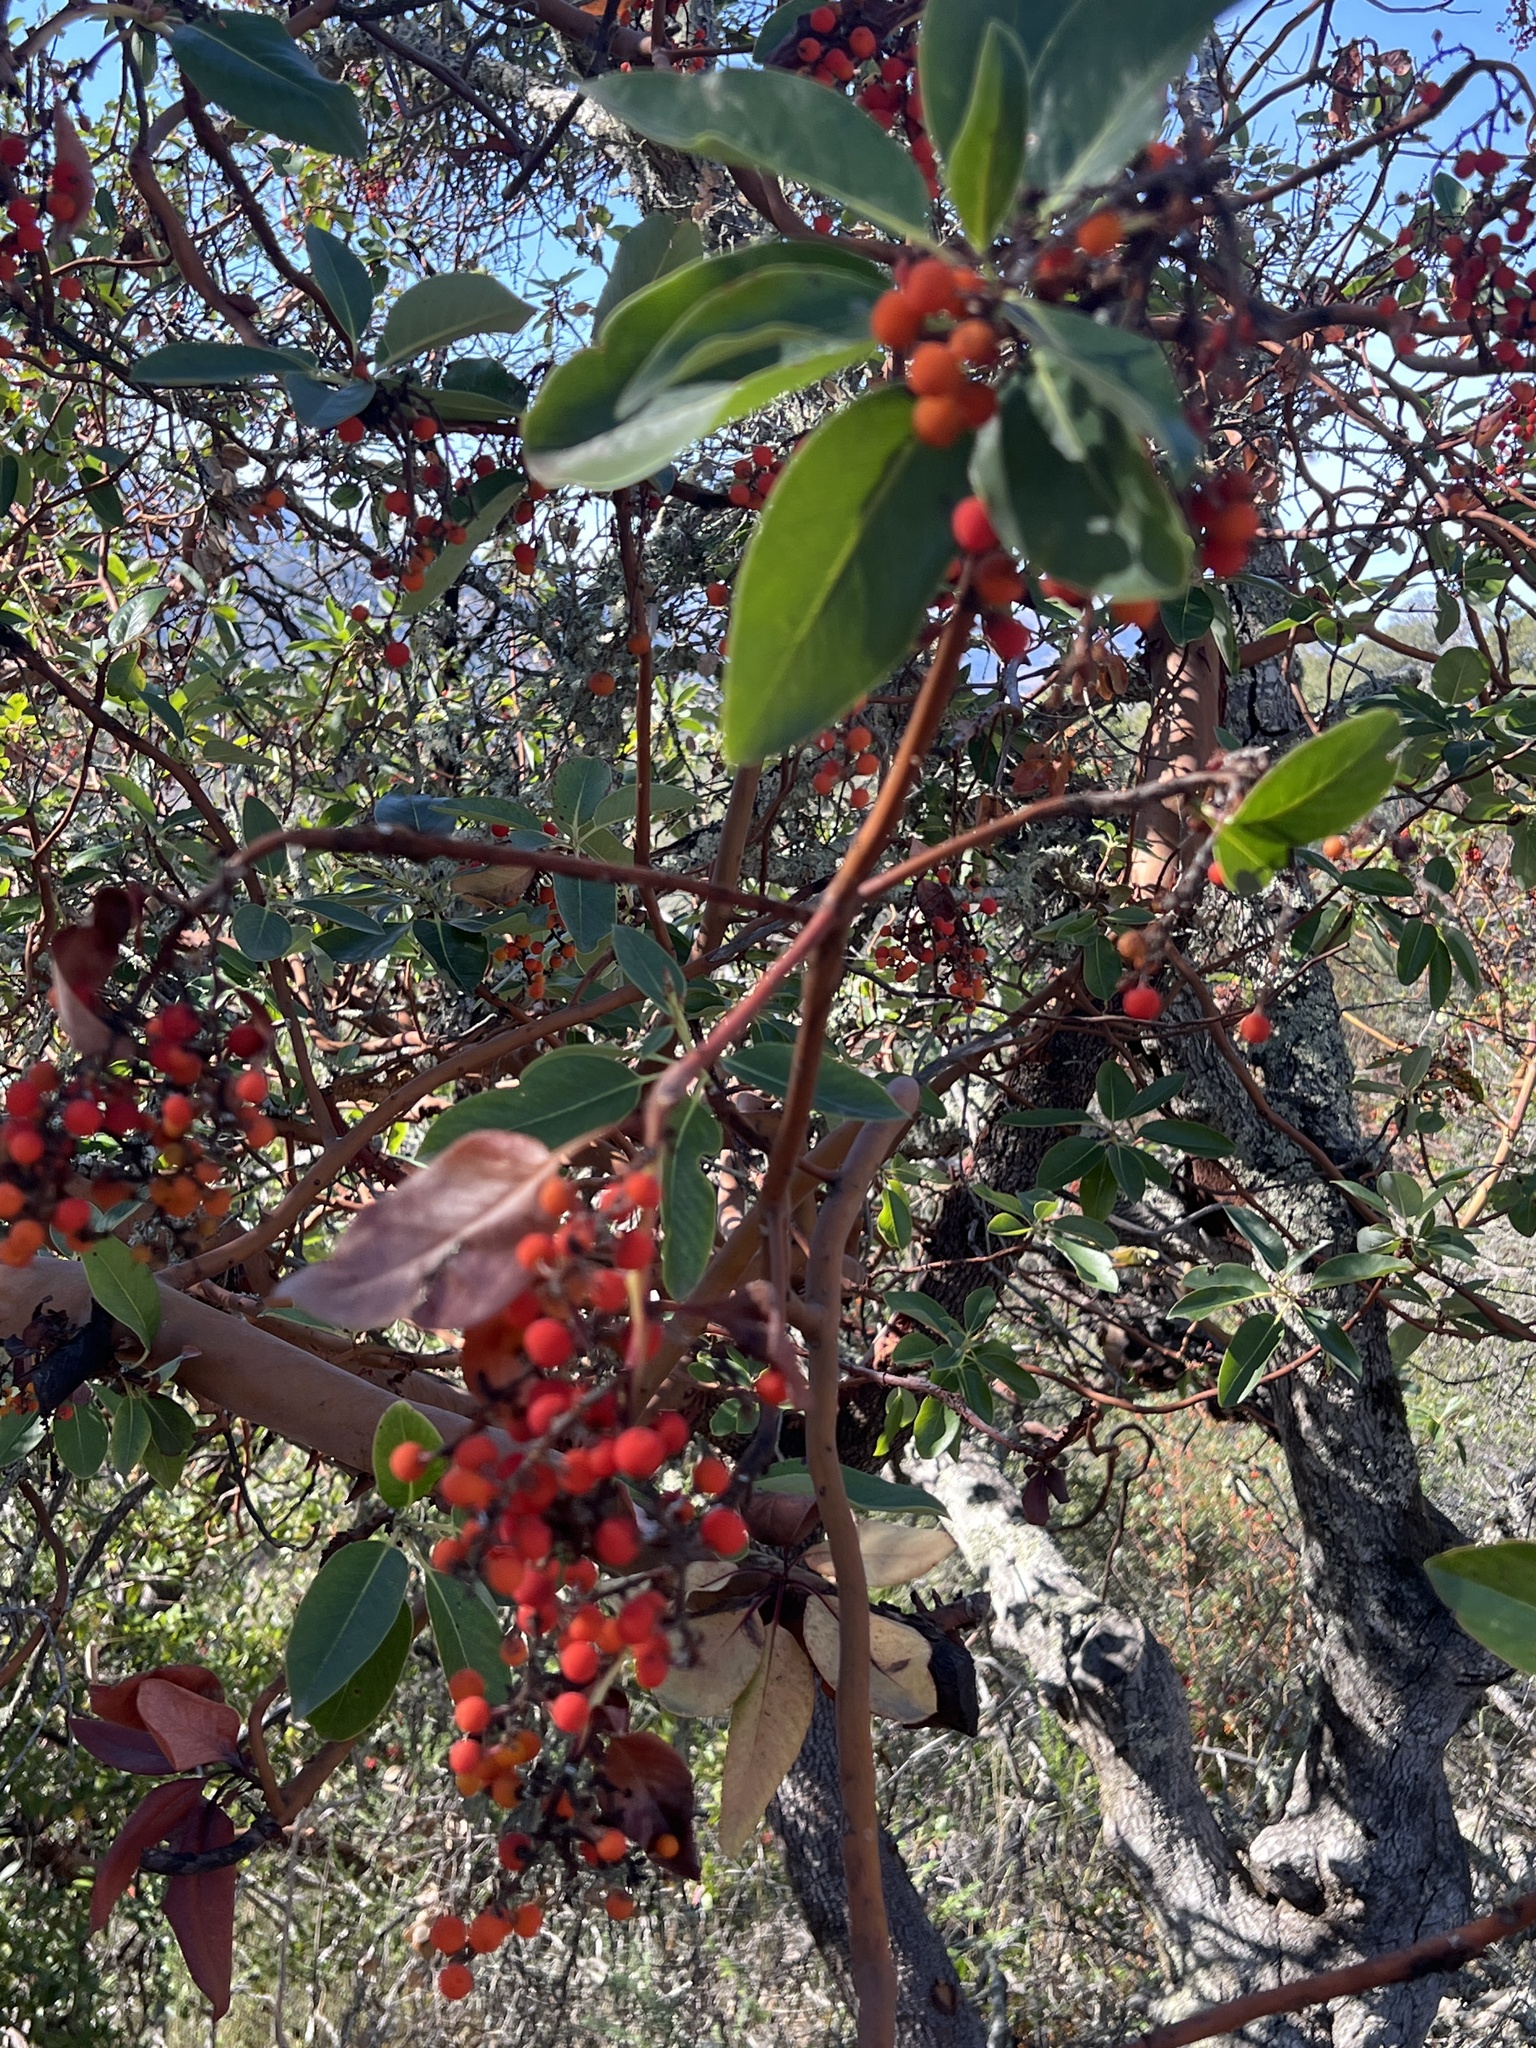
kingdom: Plantae
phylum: Tracheophyta
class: Magnoliopsida
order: Ericales
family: Ericaceae
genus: Arbutus
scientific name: Arbutus menziesii
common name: Pacific madrone
